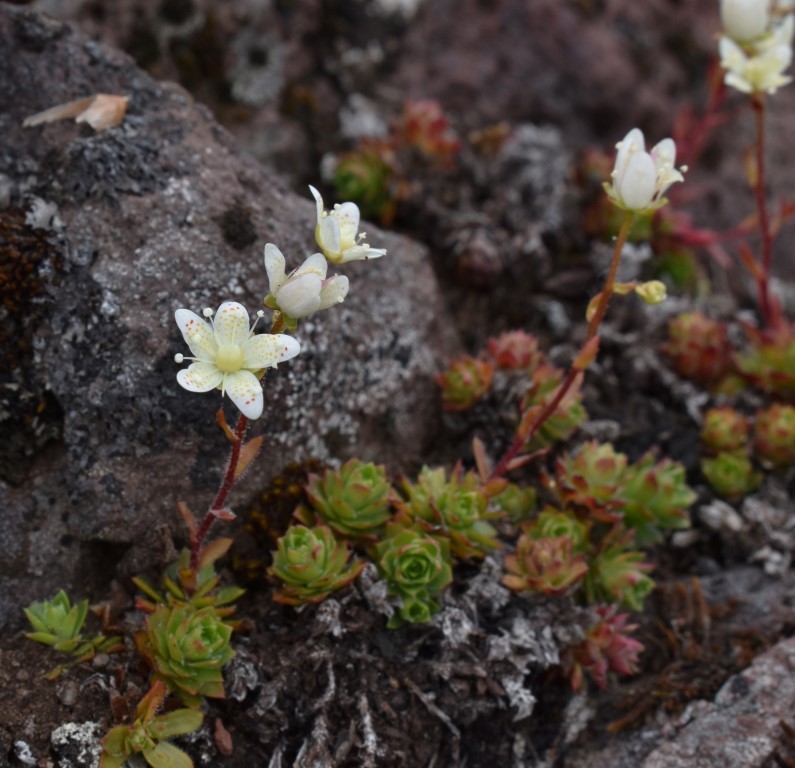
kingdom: Plantae
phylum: Tracheophyta
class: Magnoliopsida
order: Saxifragales
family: Saxifragaceae
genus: Saxifraga
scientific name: Saxifraga bronchialis
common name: Matted saxifrage
